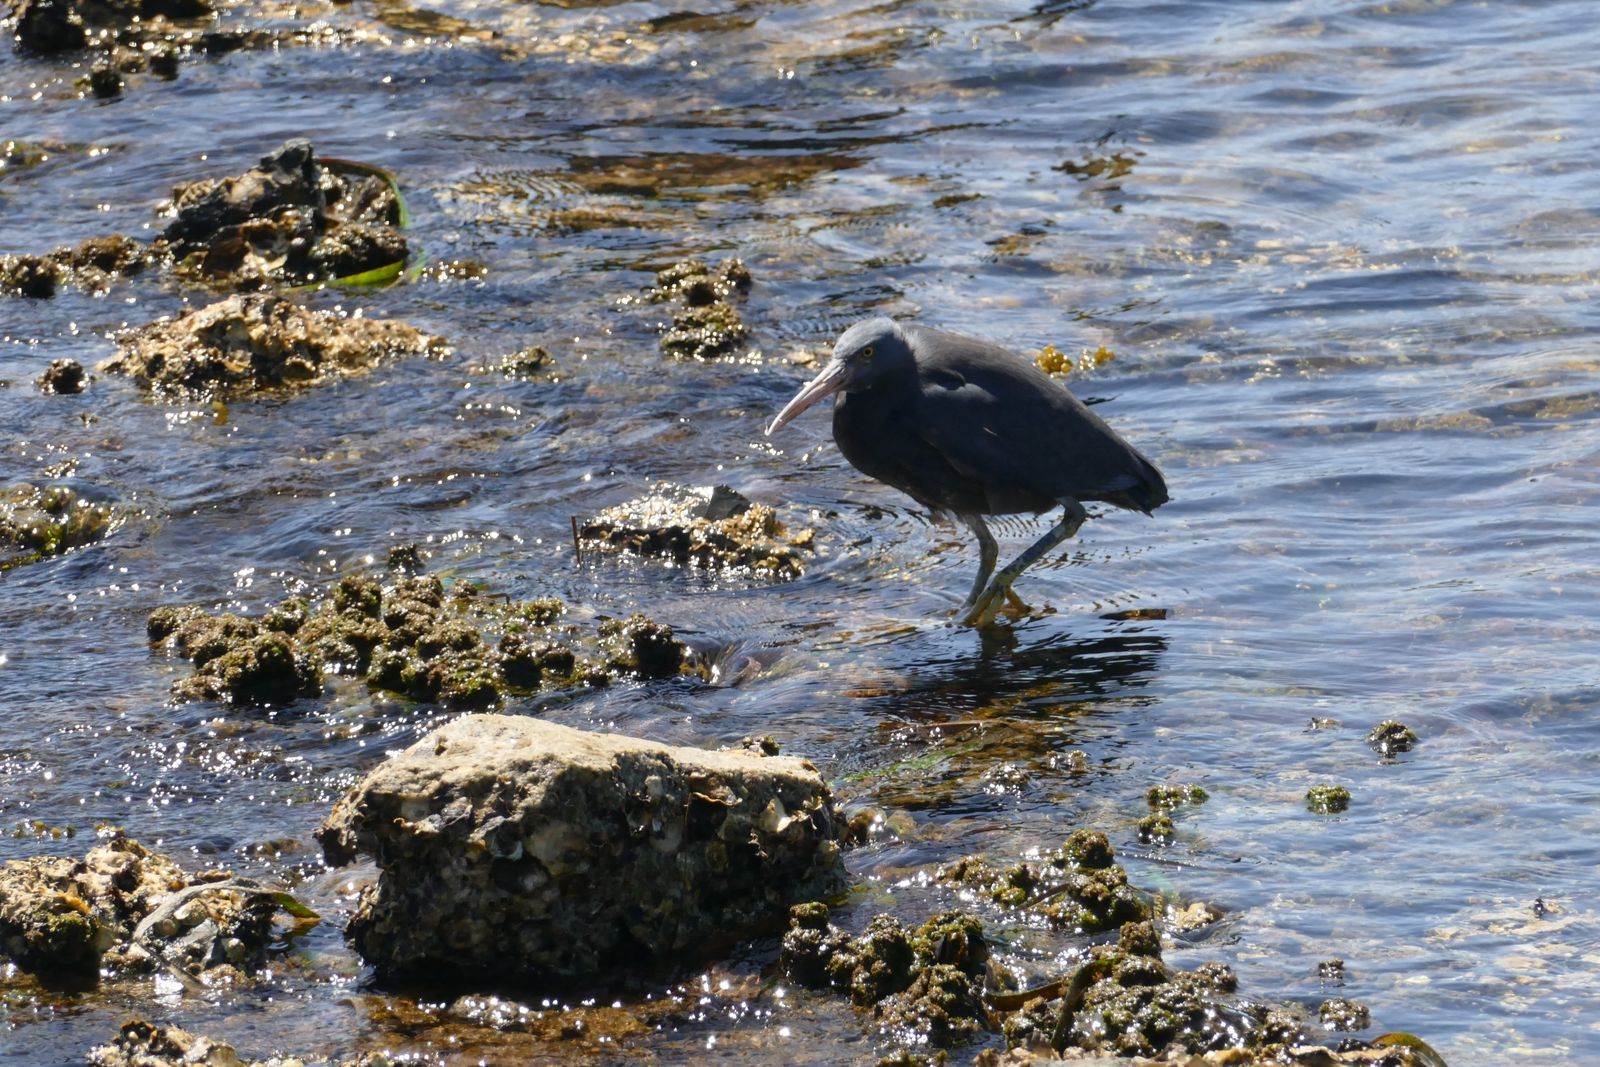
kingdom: Animalia
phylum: Chordata
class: Aves
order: Pelecaniformes
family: Ardeidae
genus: Egretta
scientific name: Egretta sacra
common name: Pacific reef heron
